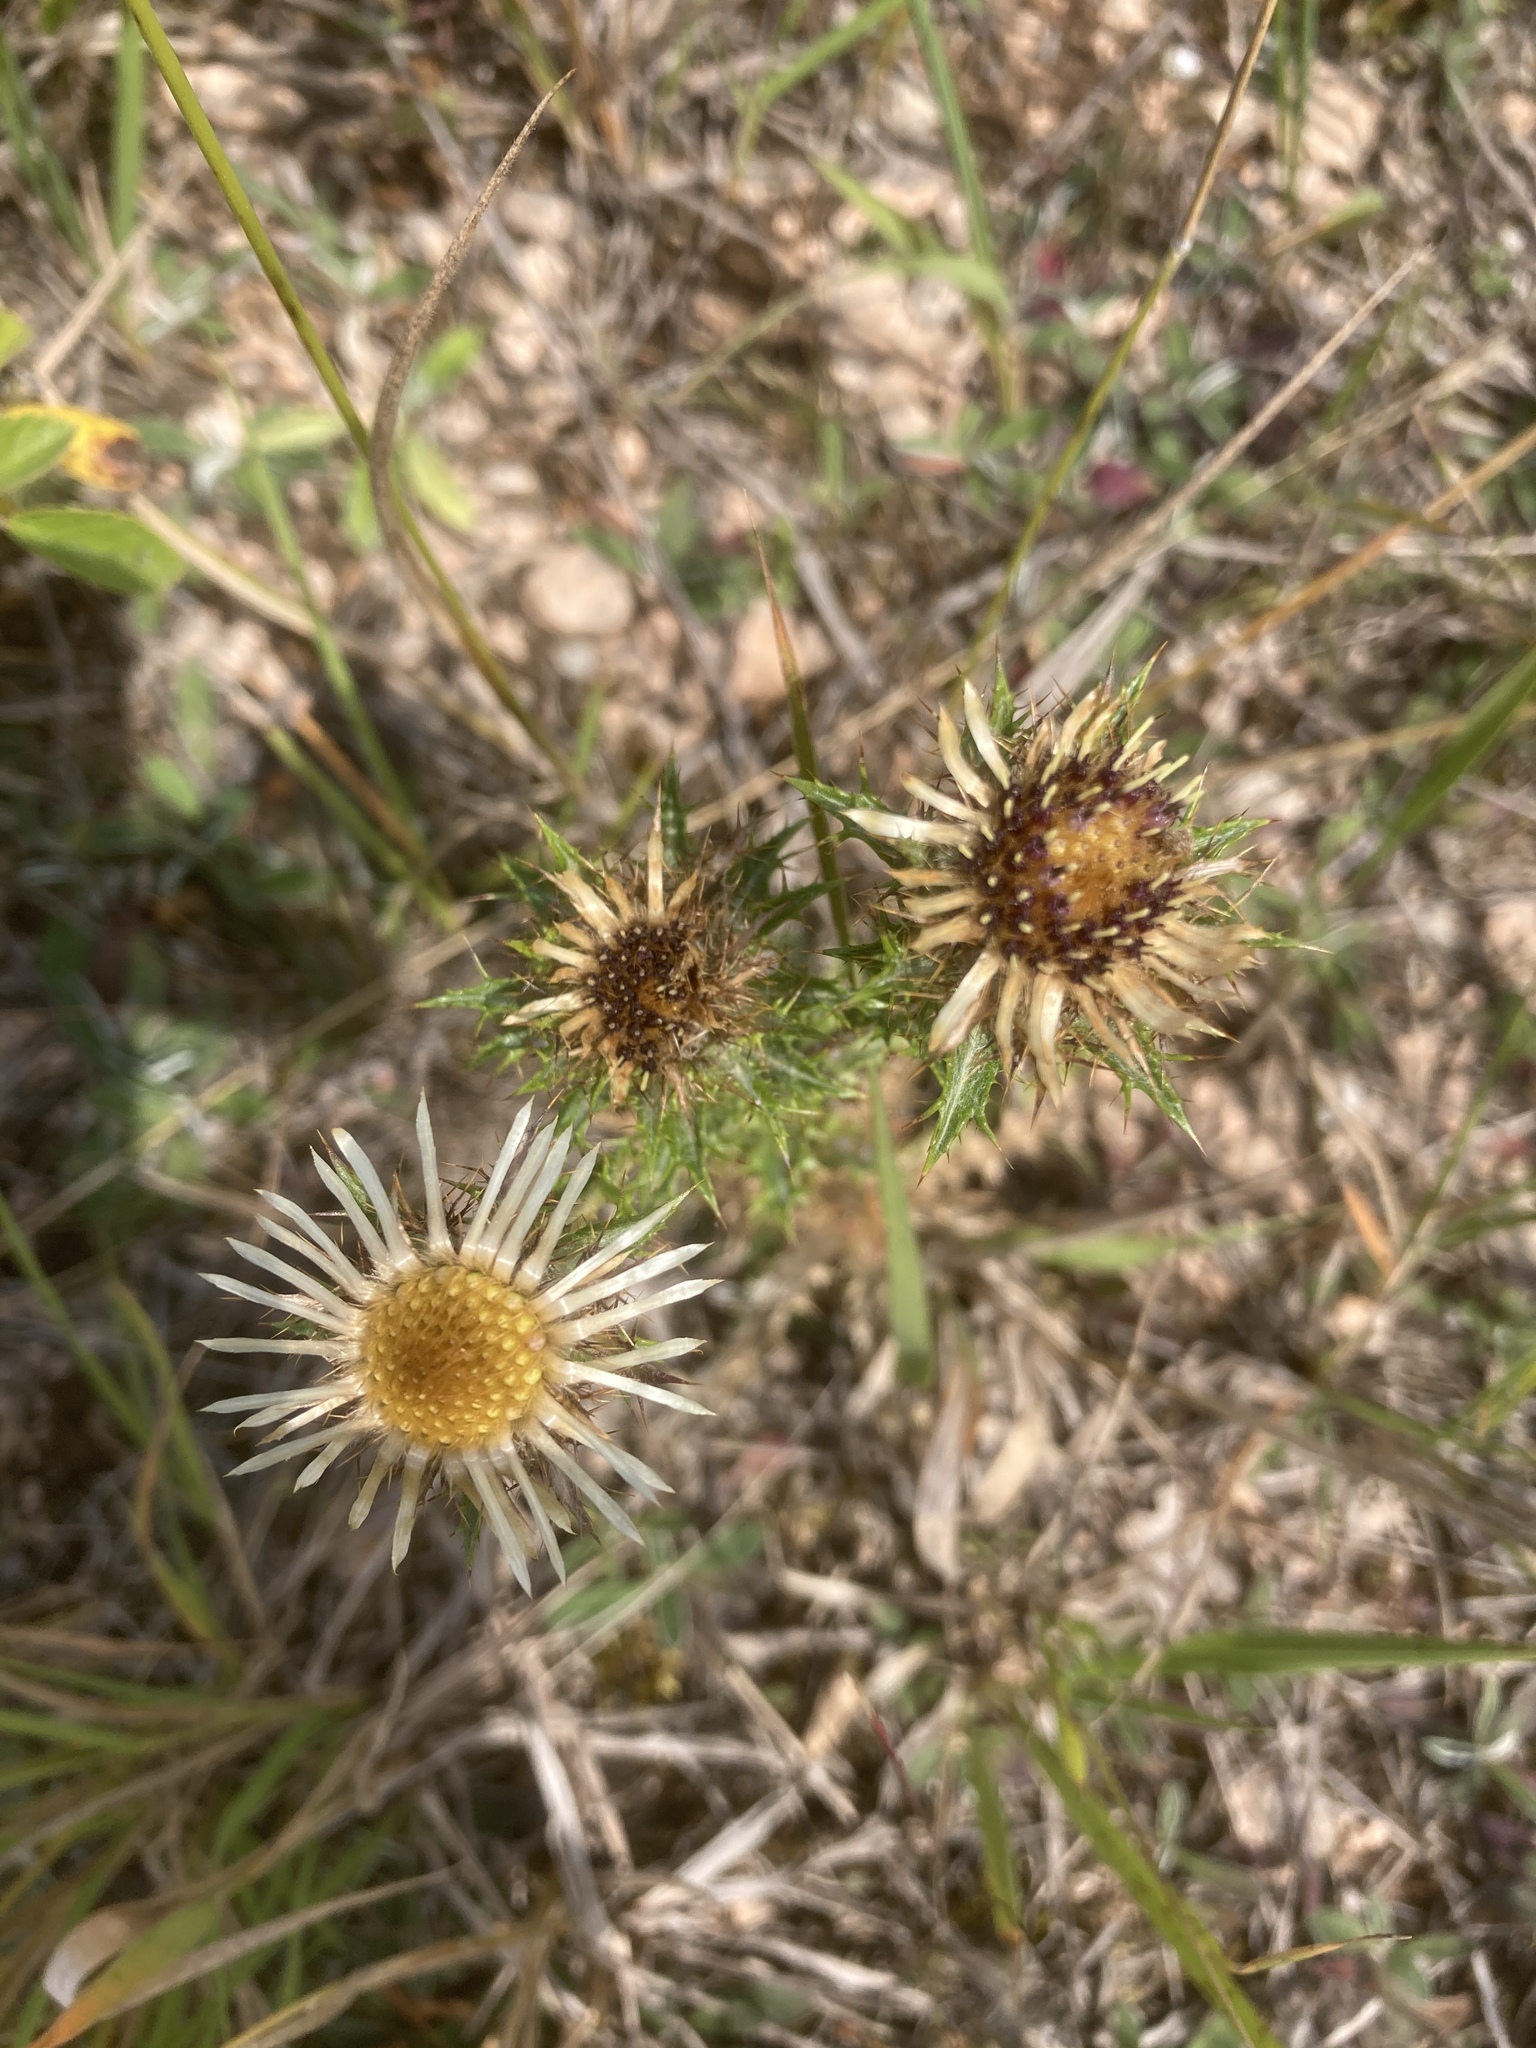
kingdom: Plantae
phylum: Tracheophyta
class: Magnoliopsida
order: Asterales
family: Asteraceae
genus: Carlina
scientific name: Carlina vulgaris
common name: Carline thistle
